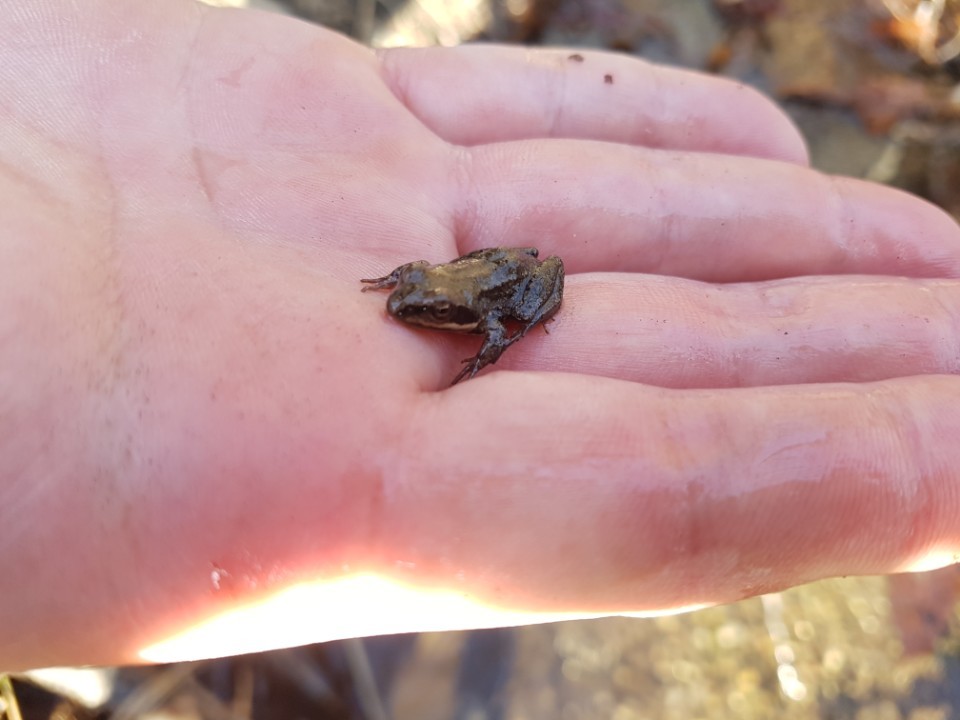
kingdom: Animalia
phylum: Chordata
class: Amphibia
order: Anura
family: Ranidae
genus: Rana
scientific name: Rana coreana
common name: Korean brown frog
